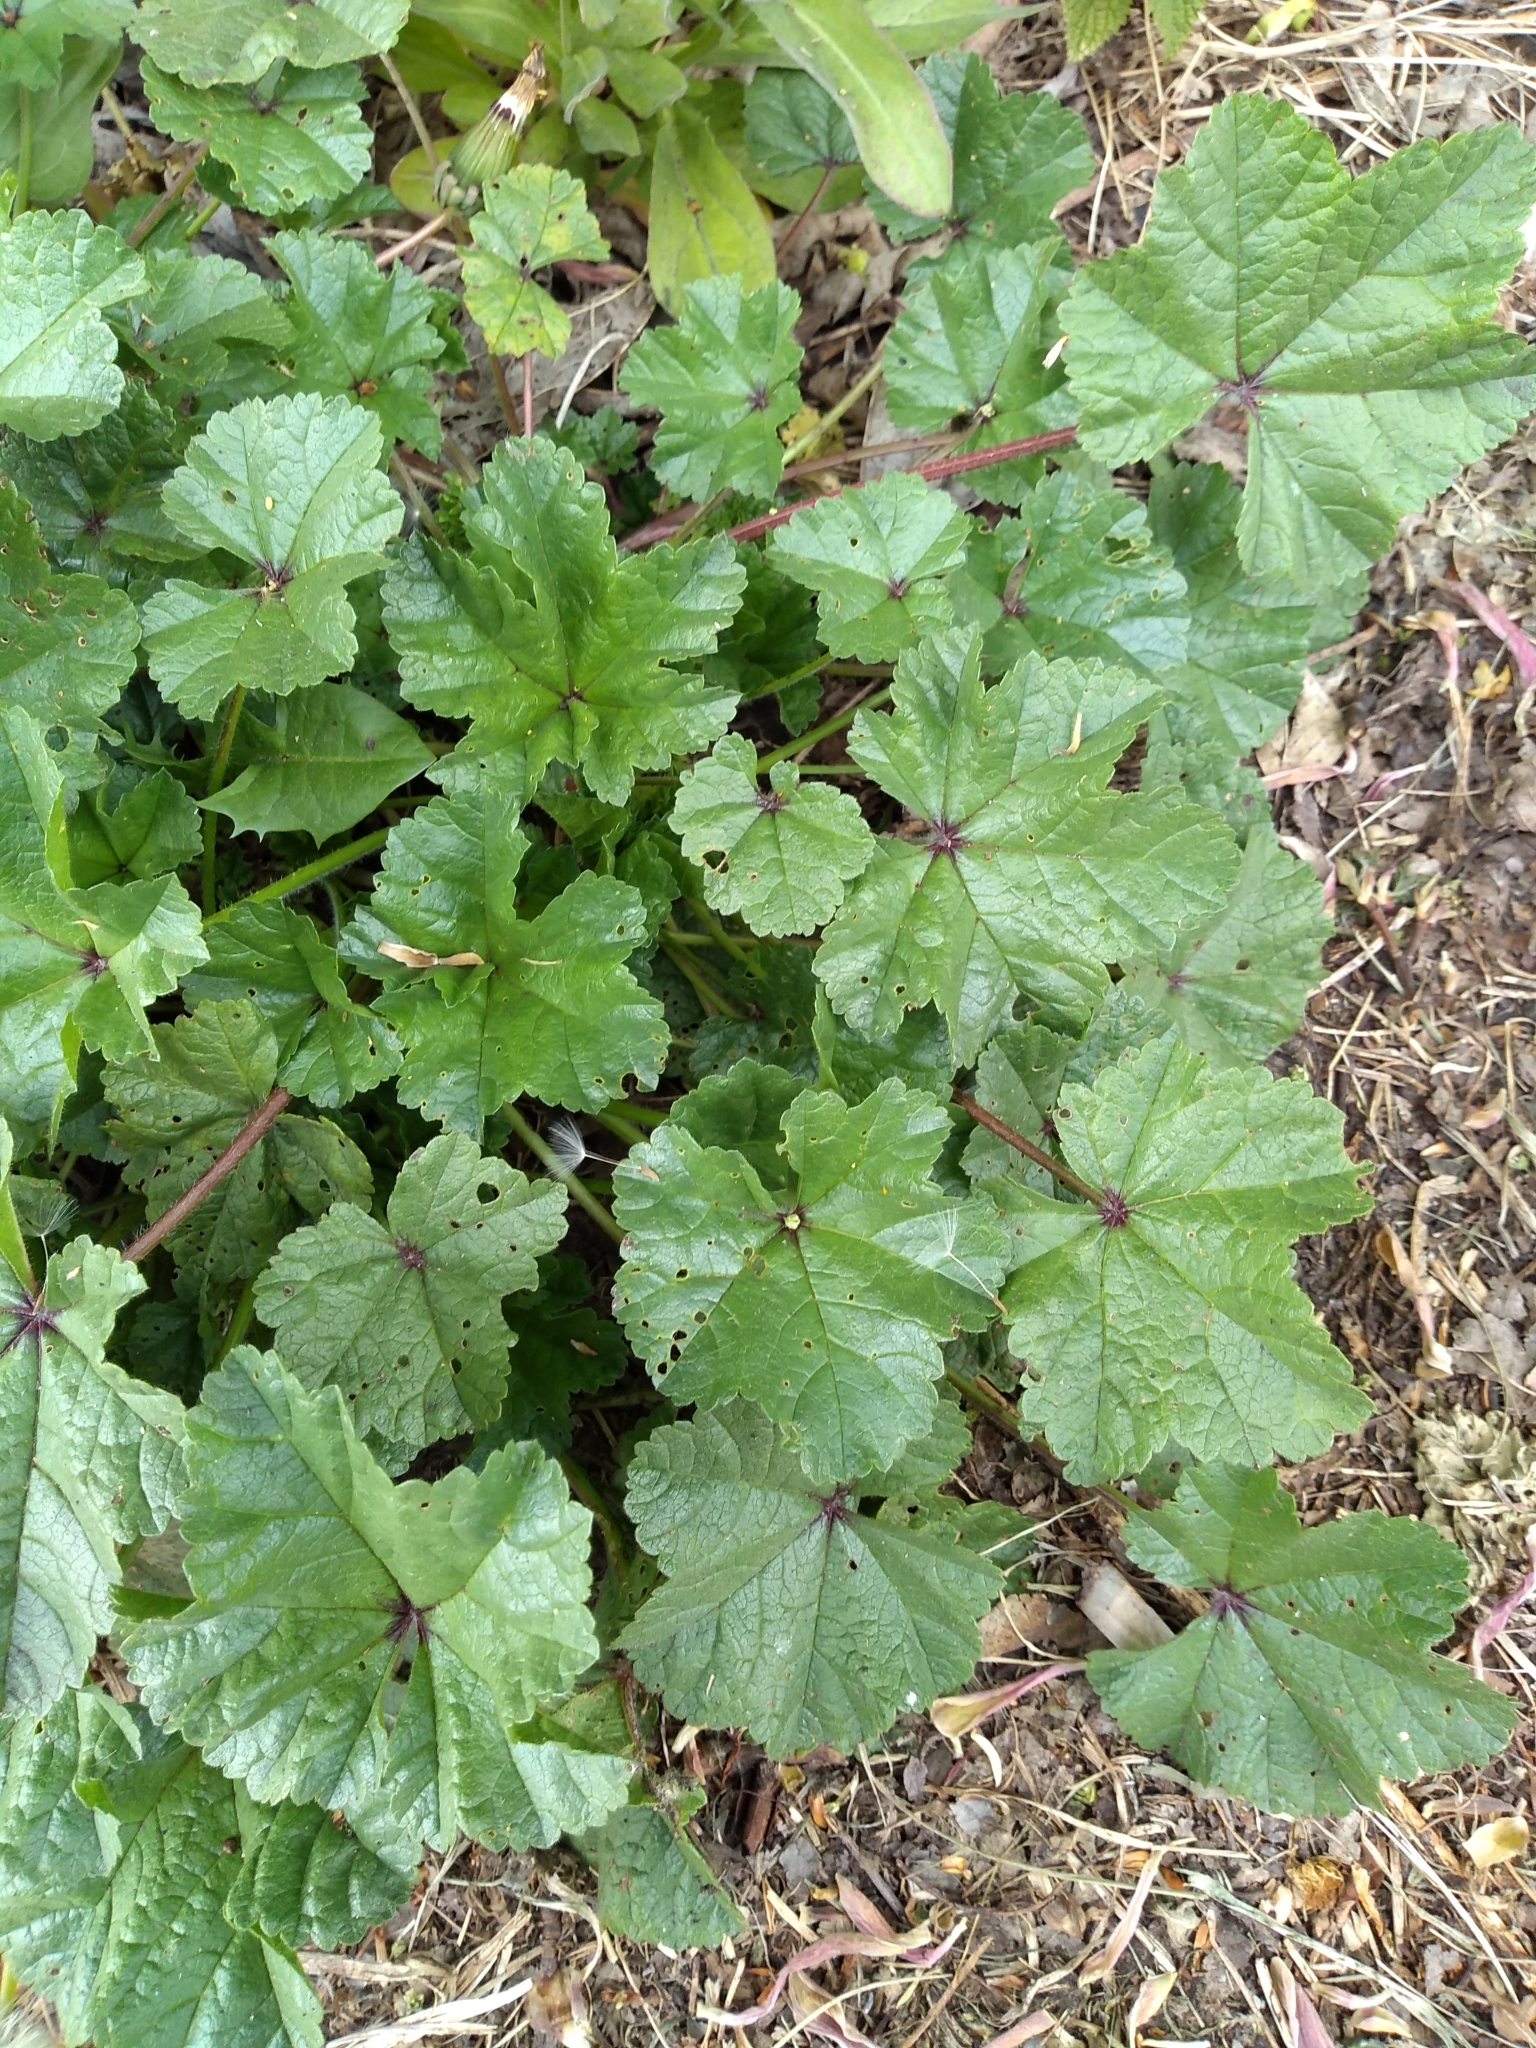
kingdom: Plantae
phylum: Tracheophyta
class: Magnoliopsida
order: Malvales
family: Malvaceae
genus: Malva
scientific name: Malva sylvestris
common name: Common mallow
